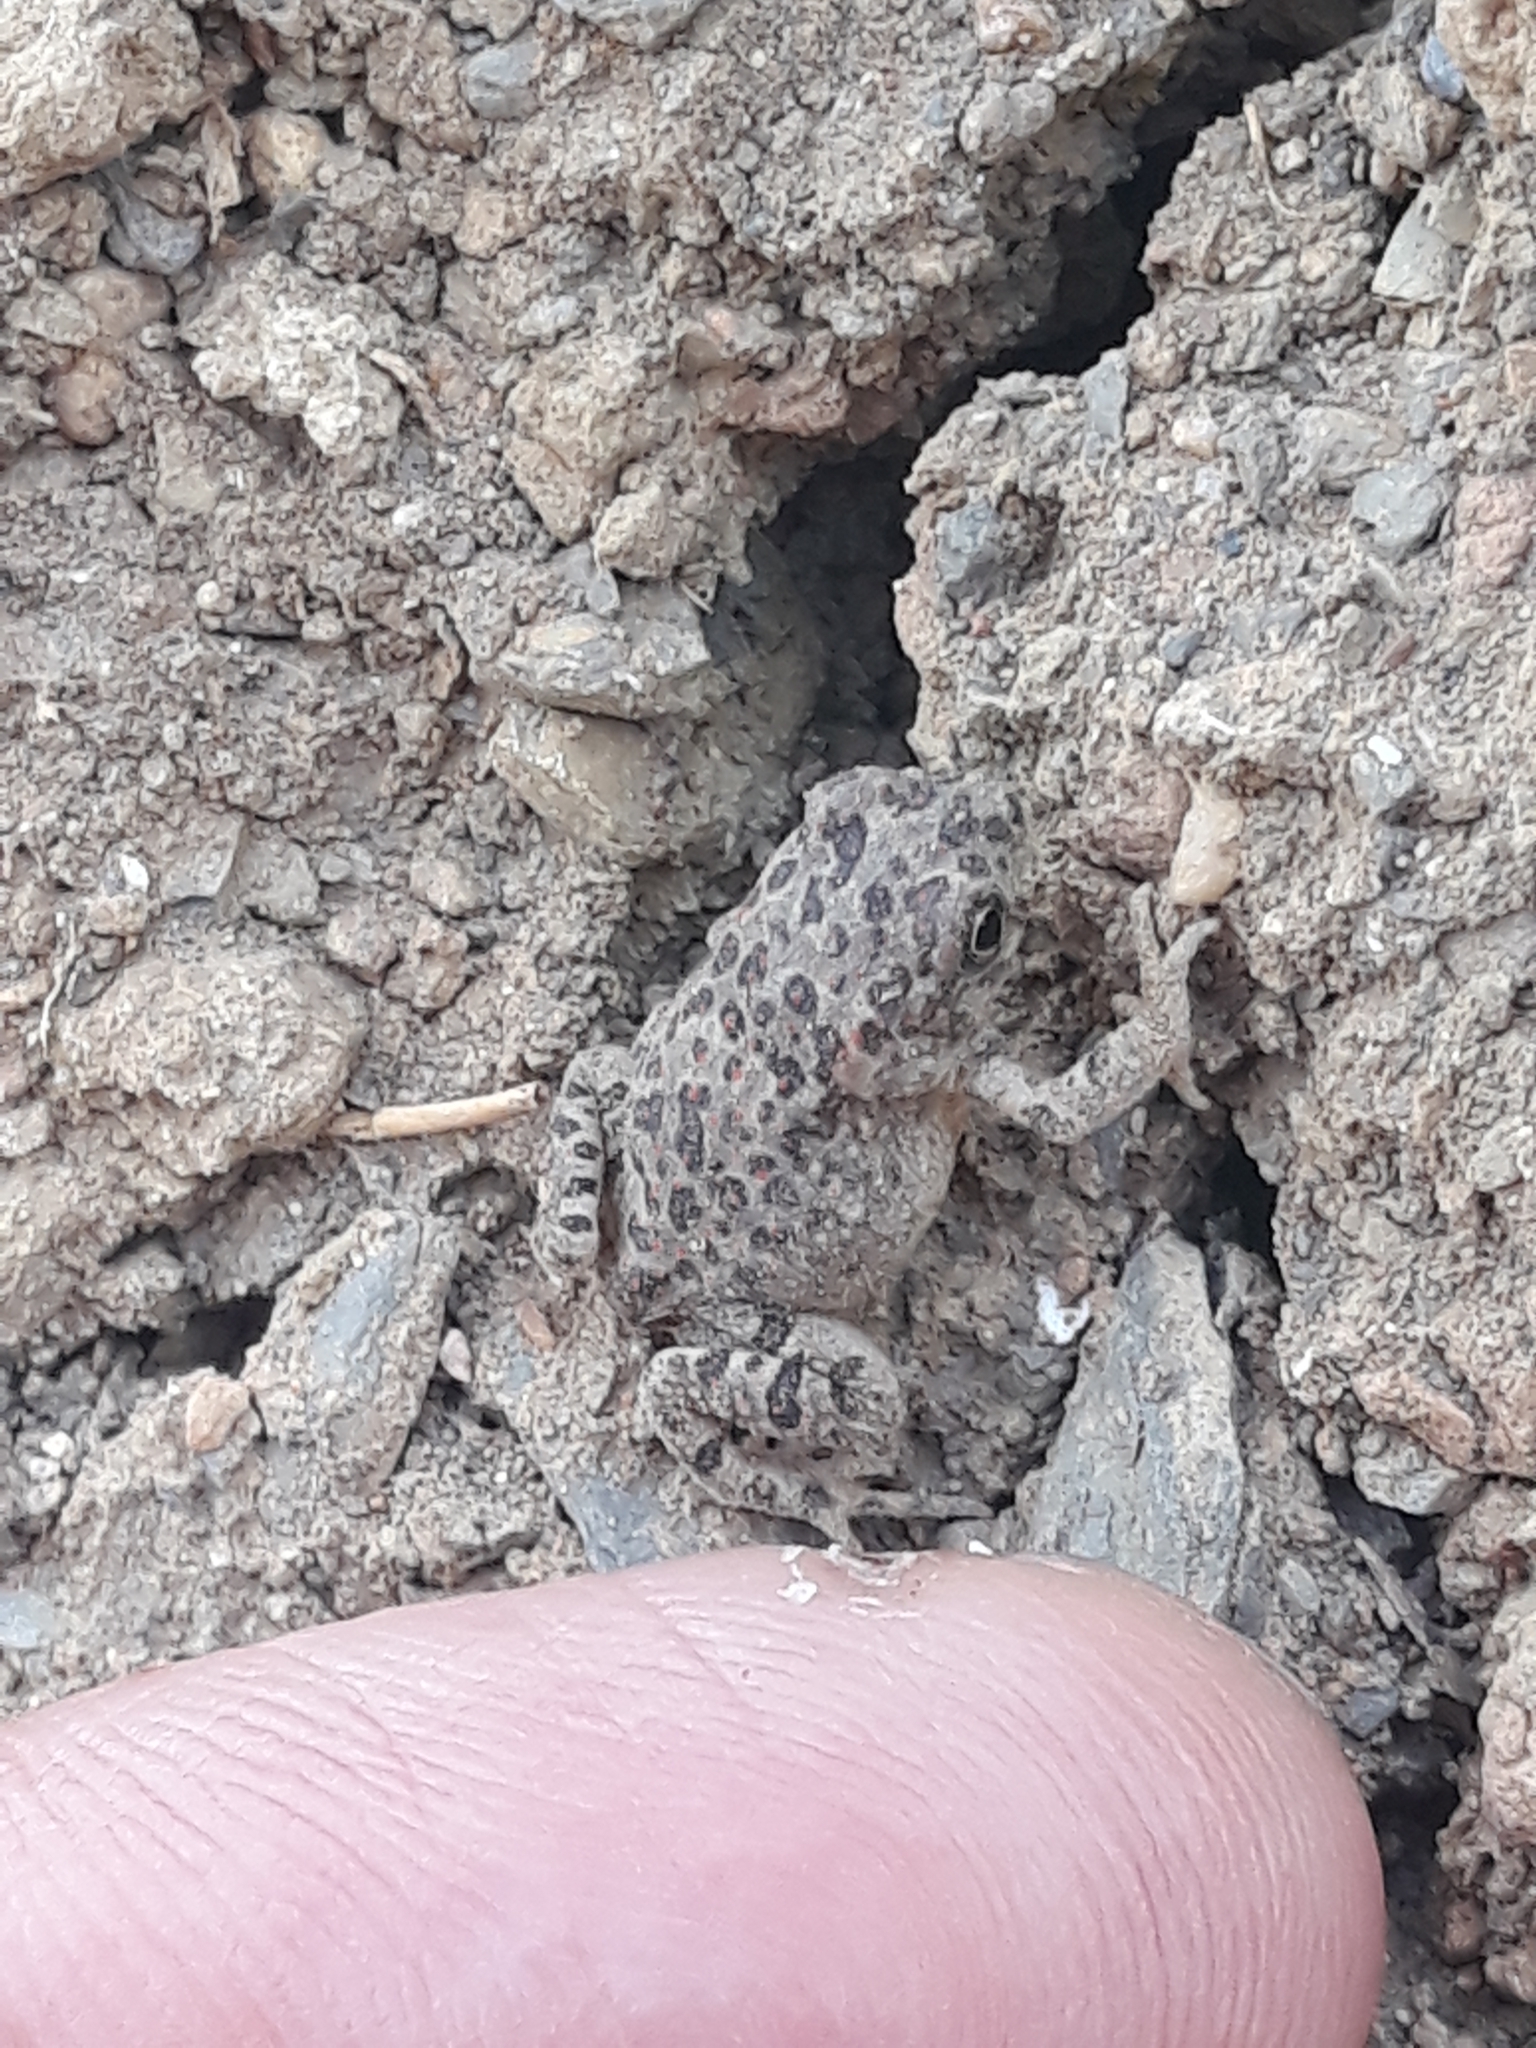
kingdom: Animalia
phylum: Chordata
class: Amphibia
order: Anura
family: Bufonidae
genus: Sclerophrys
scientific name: Sclerophrys mauritanica
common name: Berber toad
